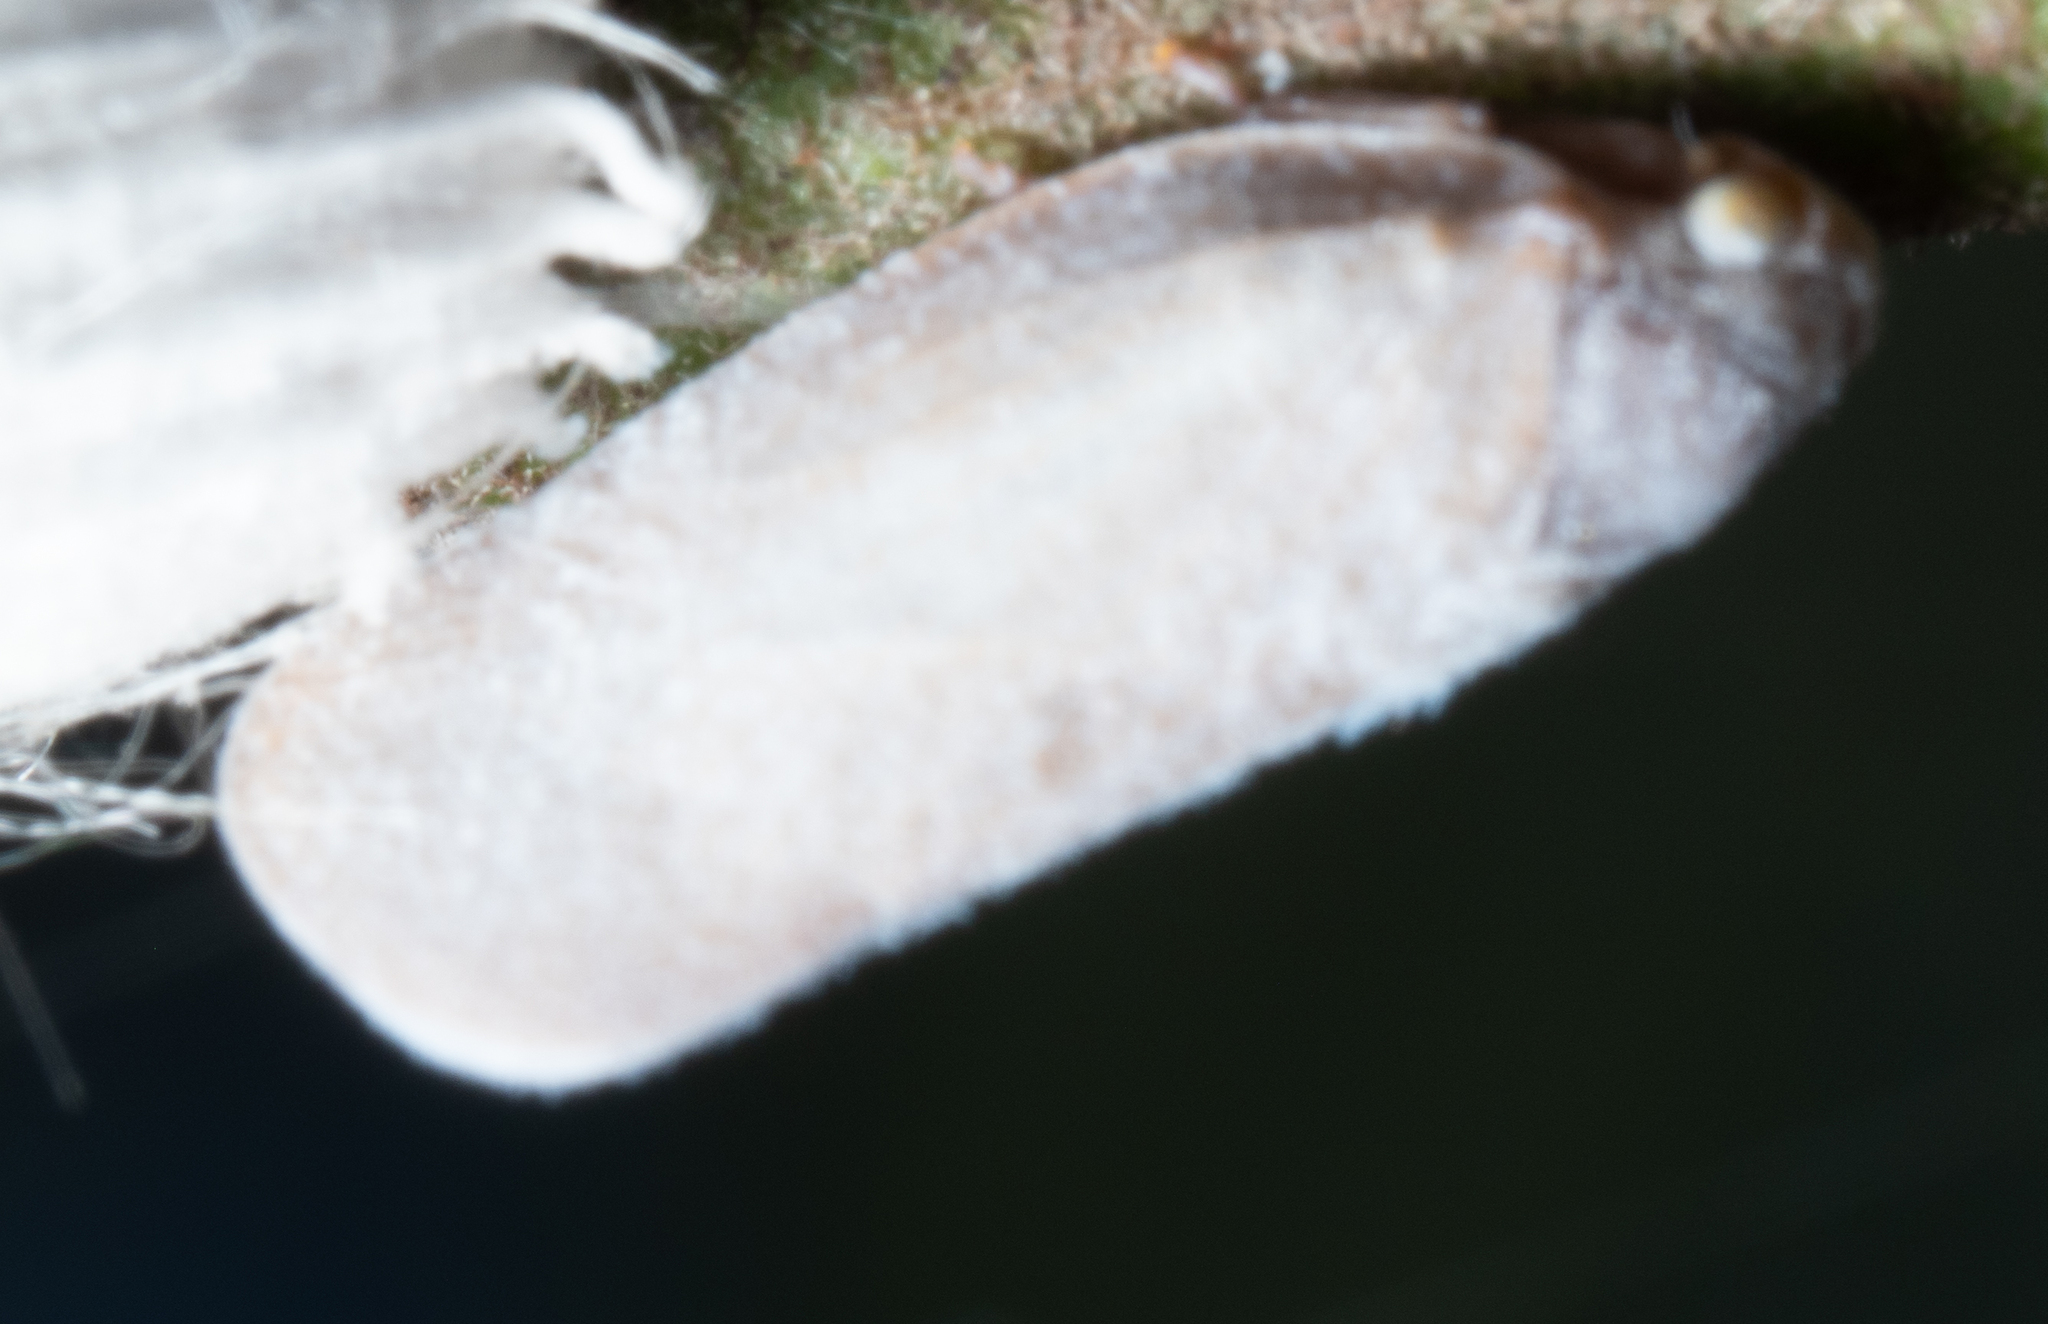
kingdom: Animalia
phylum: Arthropoda
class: Insecta
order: Hemiptera
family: Flatidae
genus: Anzora
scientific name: Anzora unicolor
